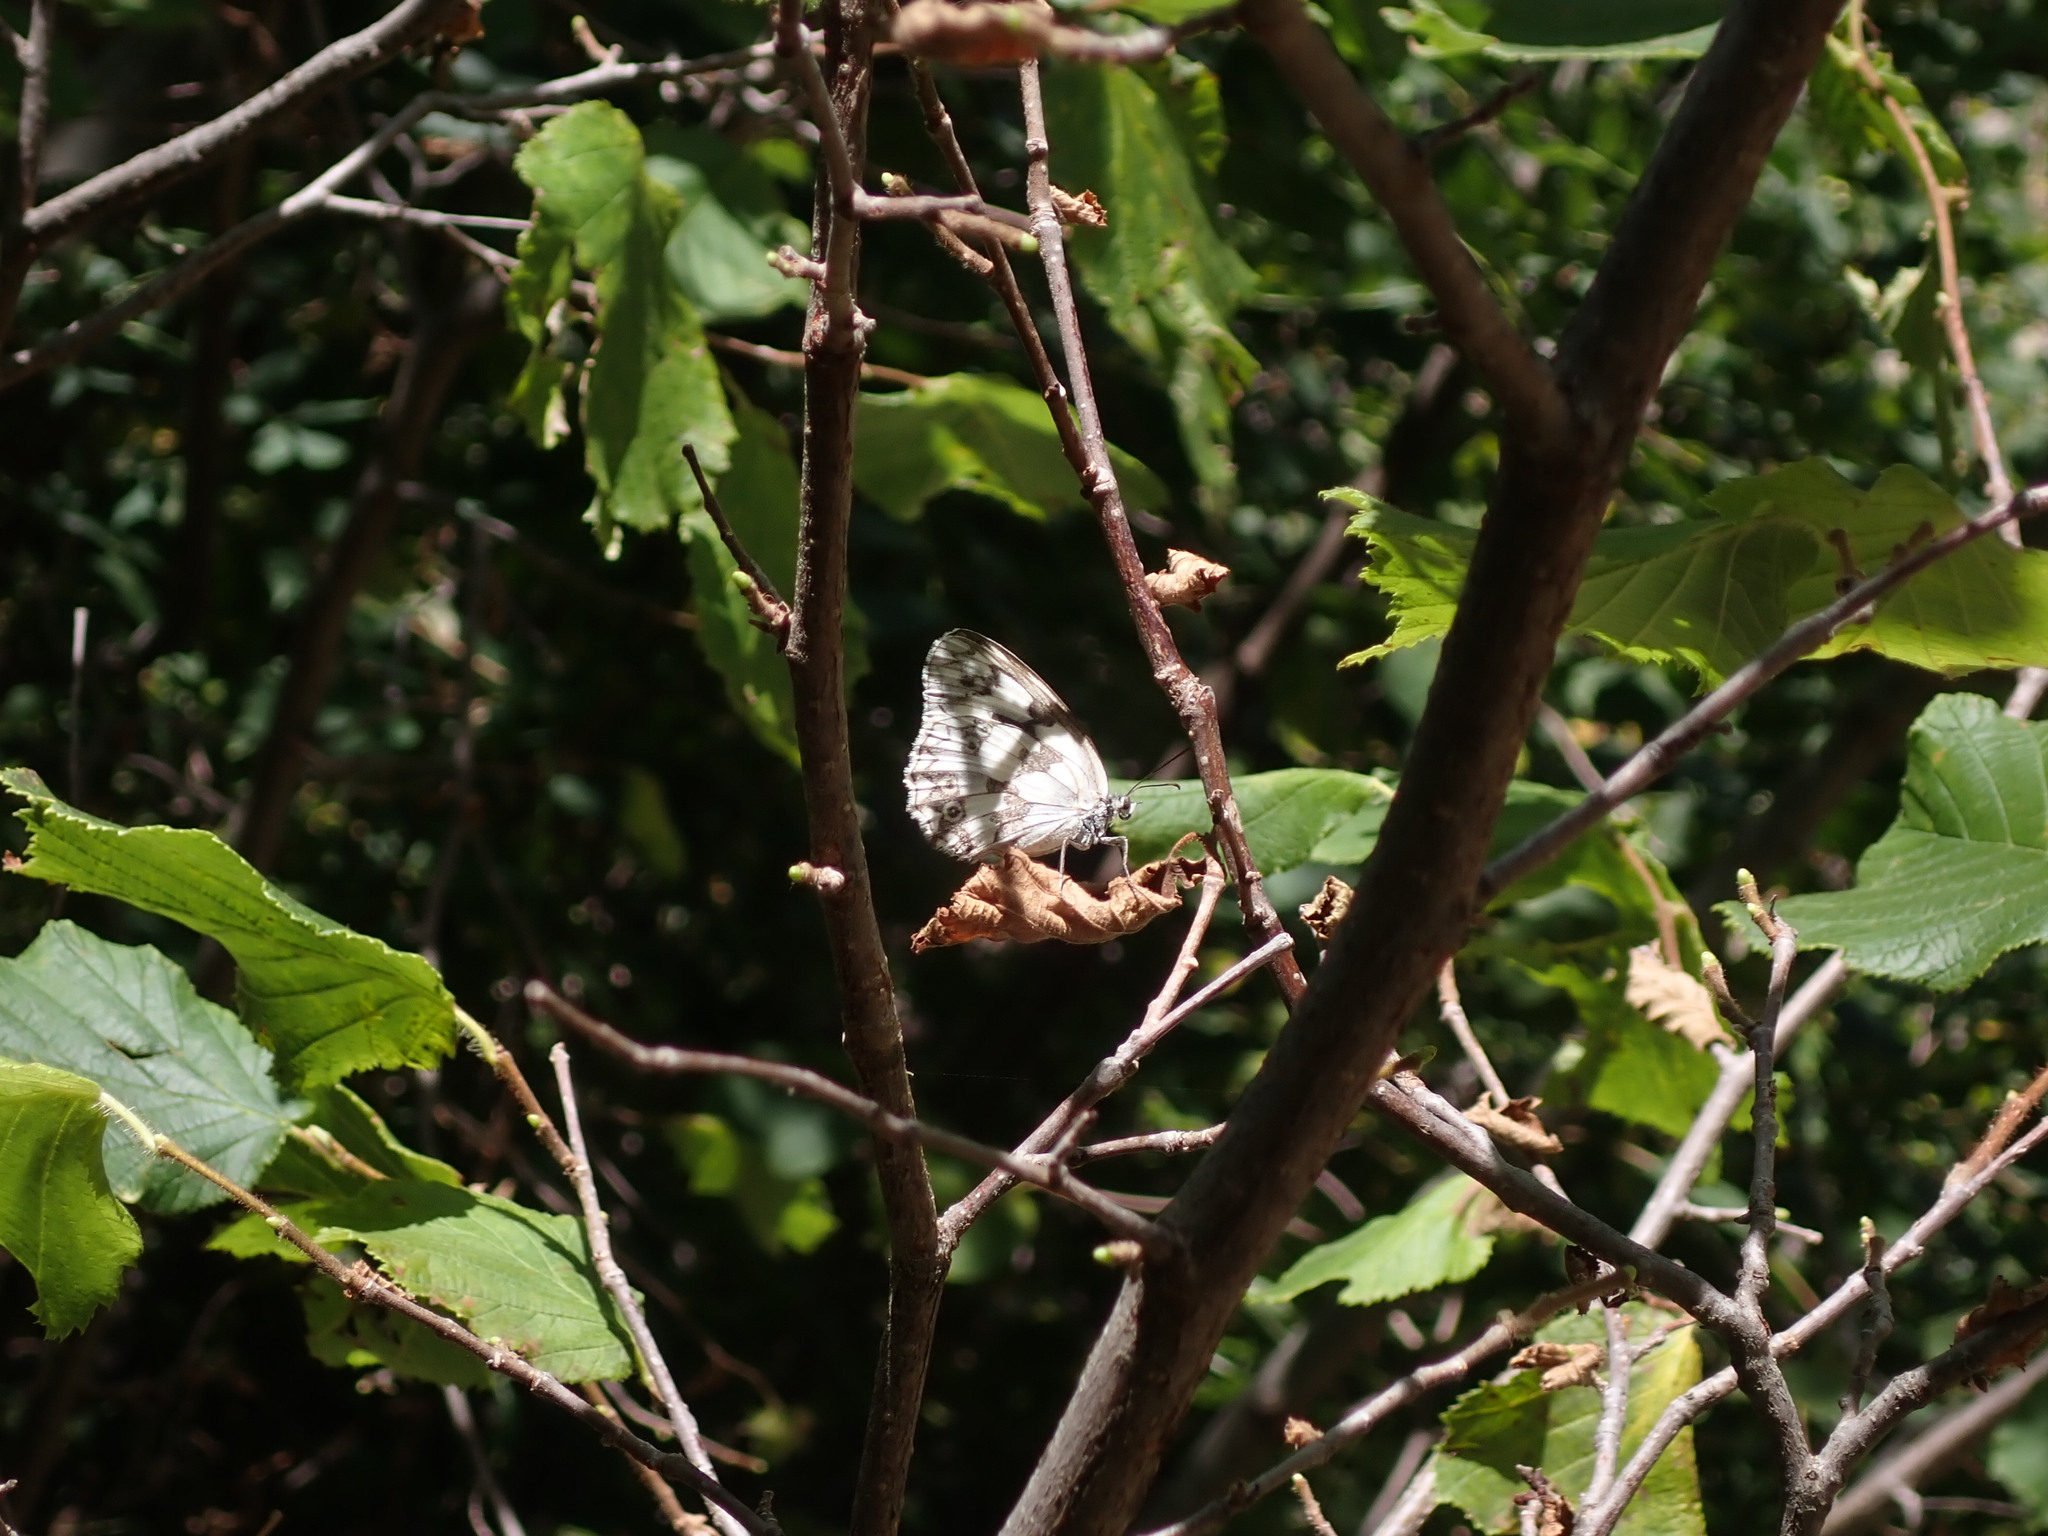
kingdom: Animalia
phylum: Arthropoda
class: Insecta
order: Lepidoptera
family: Nymphalidae
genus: Melanargia
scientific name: Melanargia lachesis
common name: Iberian marbled white
